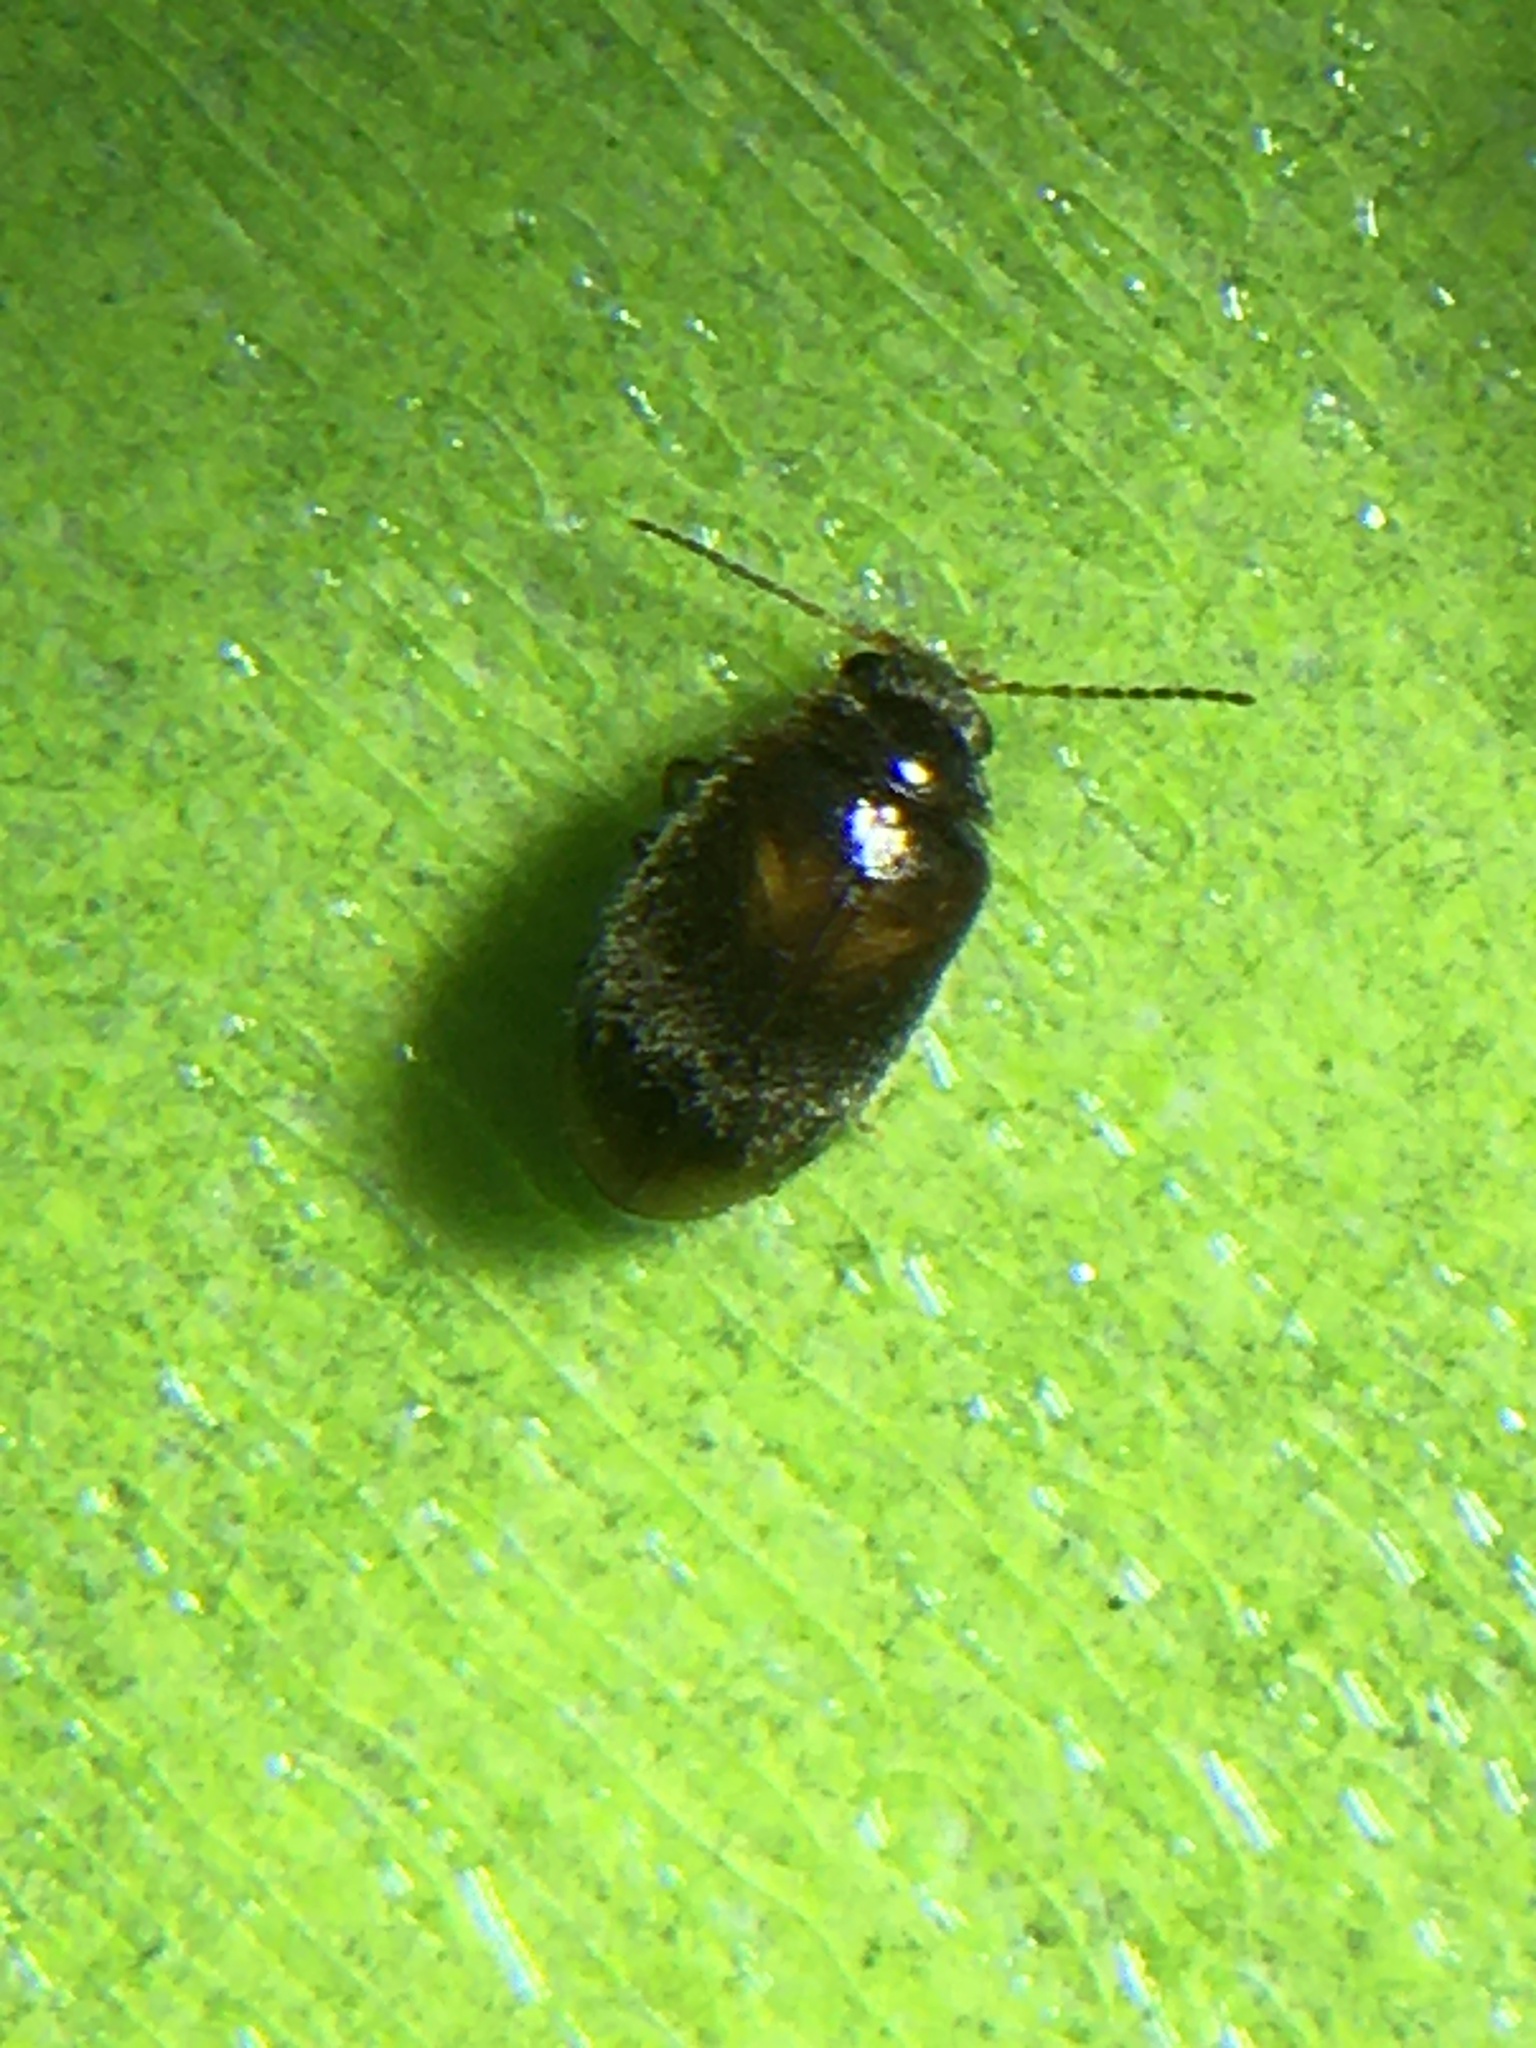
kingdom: Animalia
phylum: Arthropoda
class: Insecta
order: Coleoptera
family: Scirtidae
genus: Contacyphon
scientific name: Contacyphon
